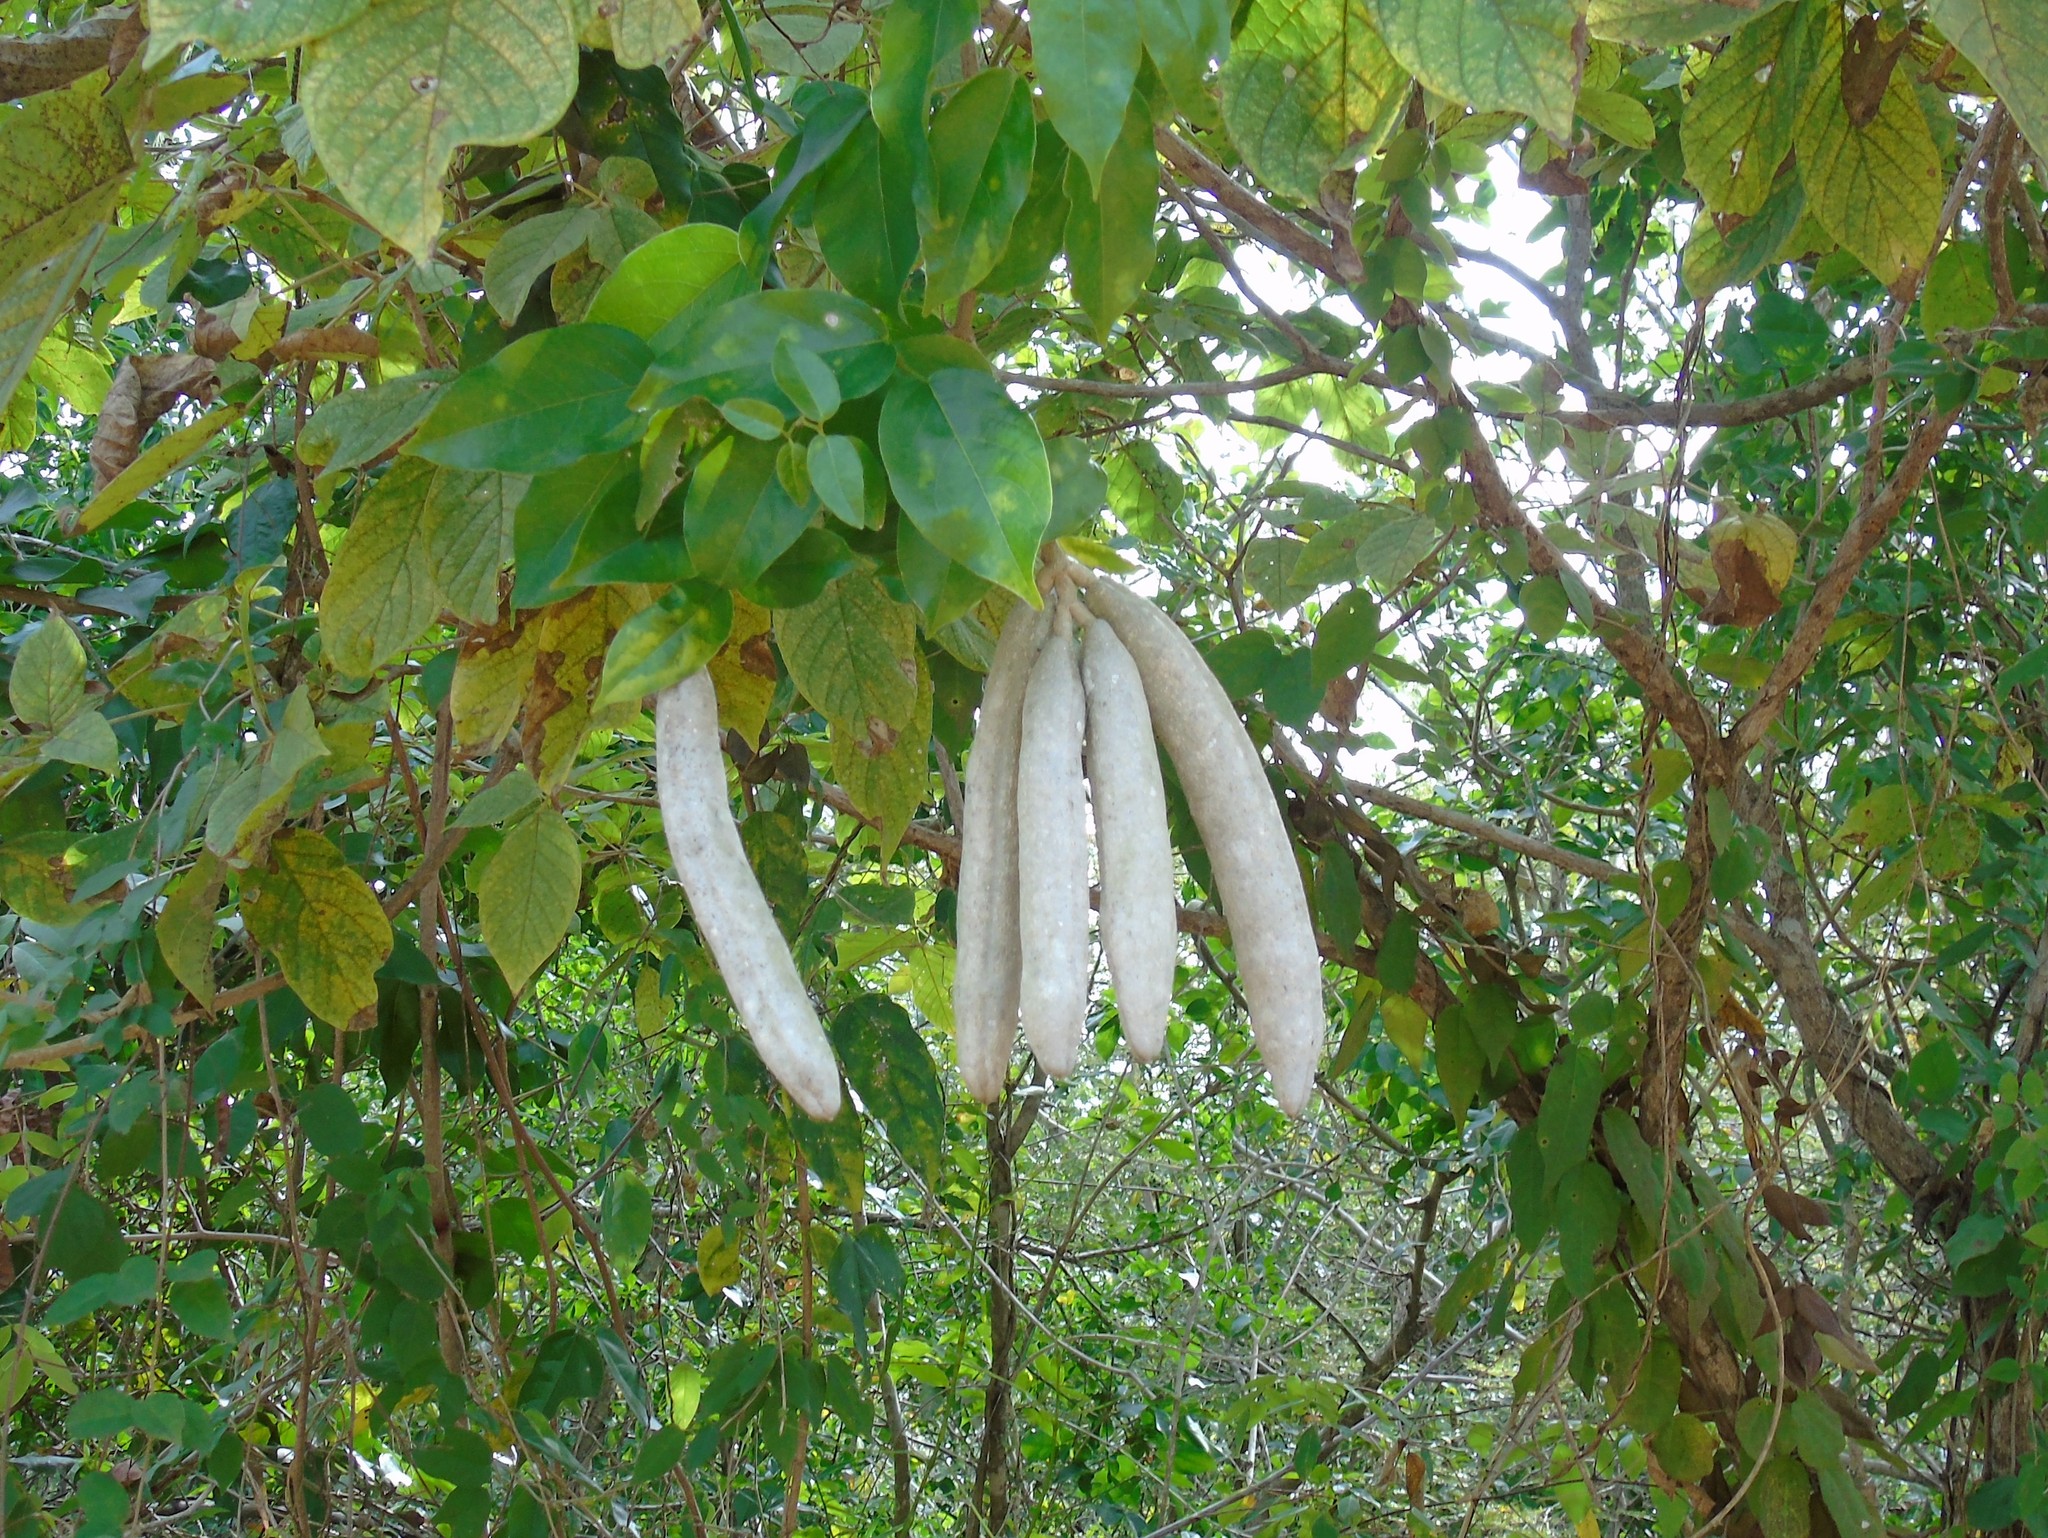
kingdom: Plantae
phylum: Tracheophyta
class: Magnoliopsida
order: Lamiales
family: Bignoniaceae
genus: Adenocalymma
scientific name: Adenocalymma inundatum
